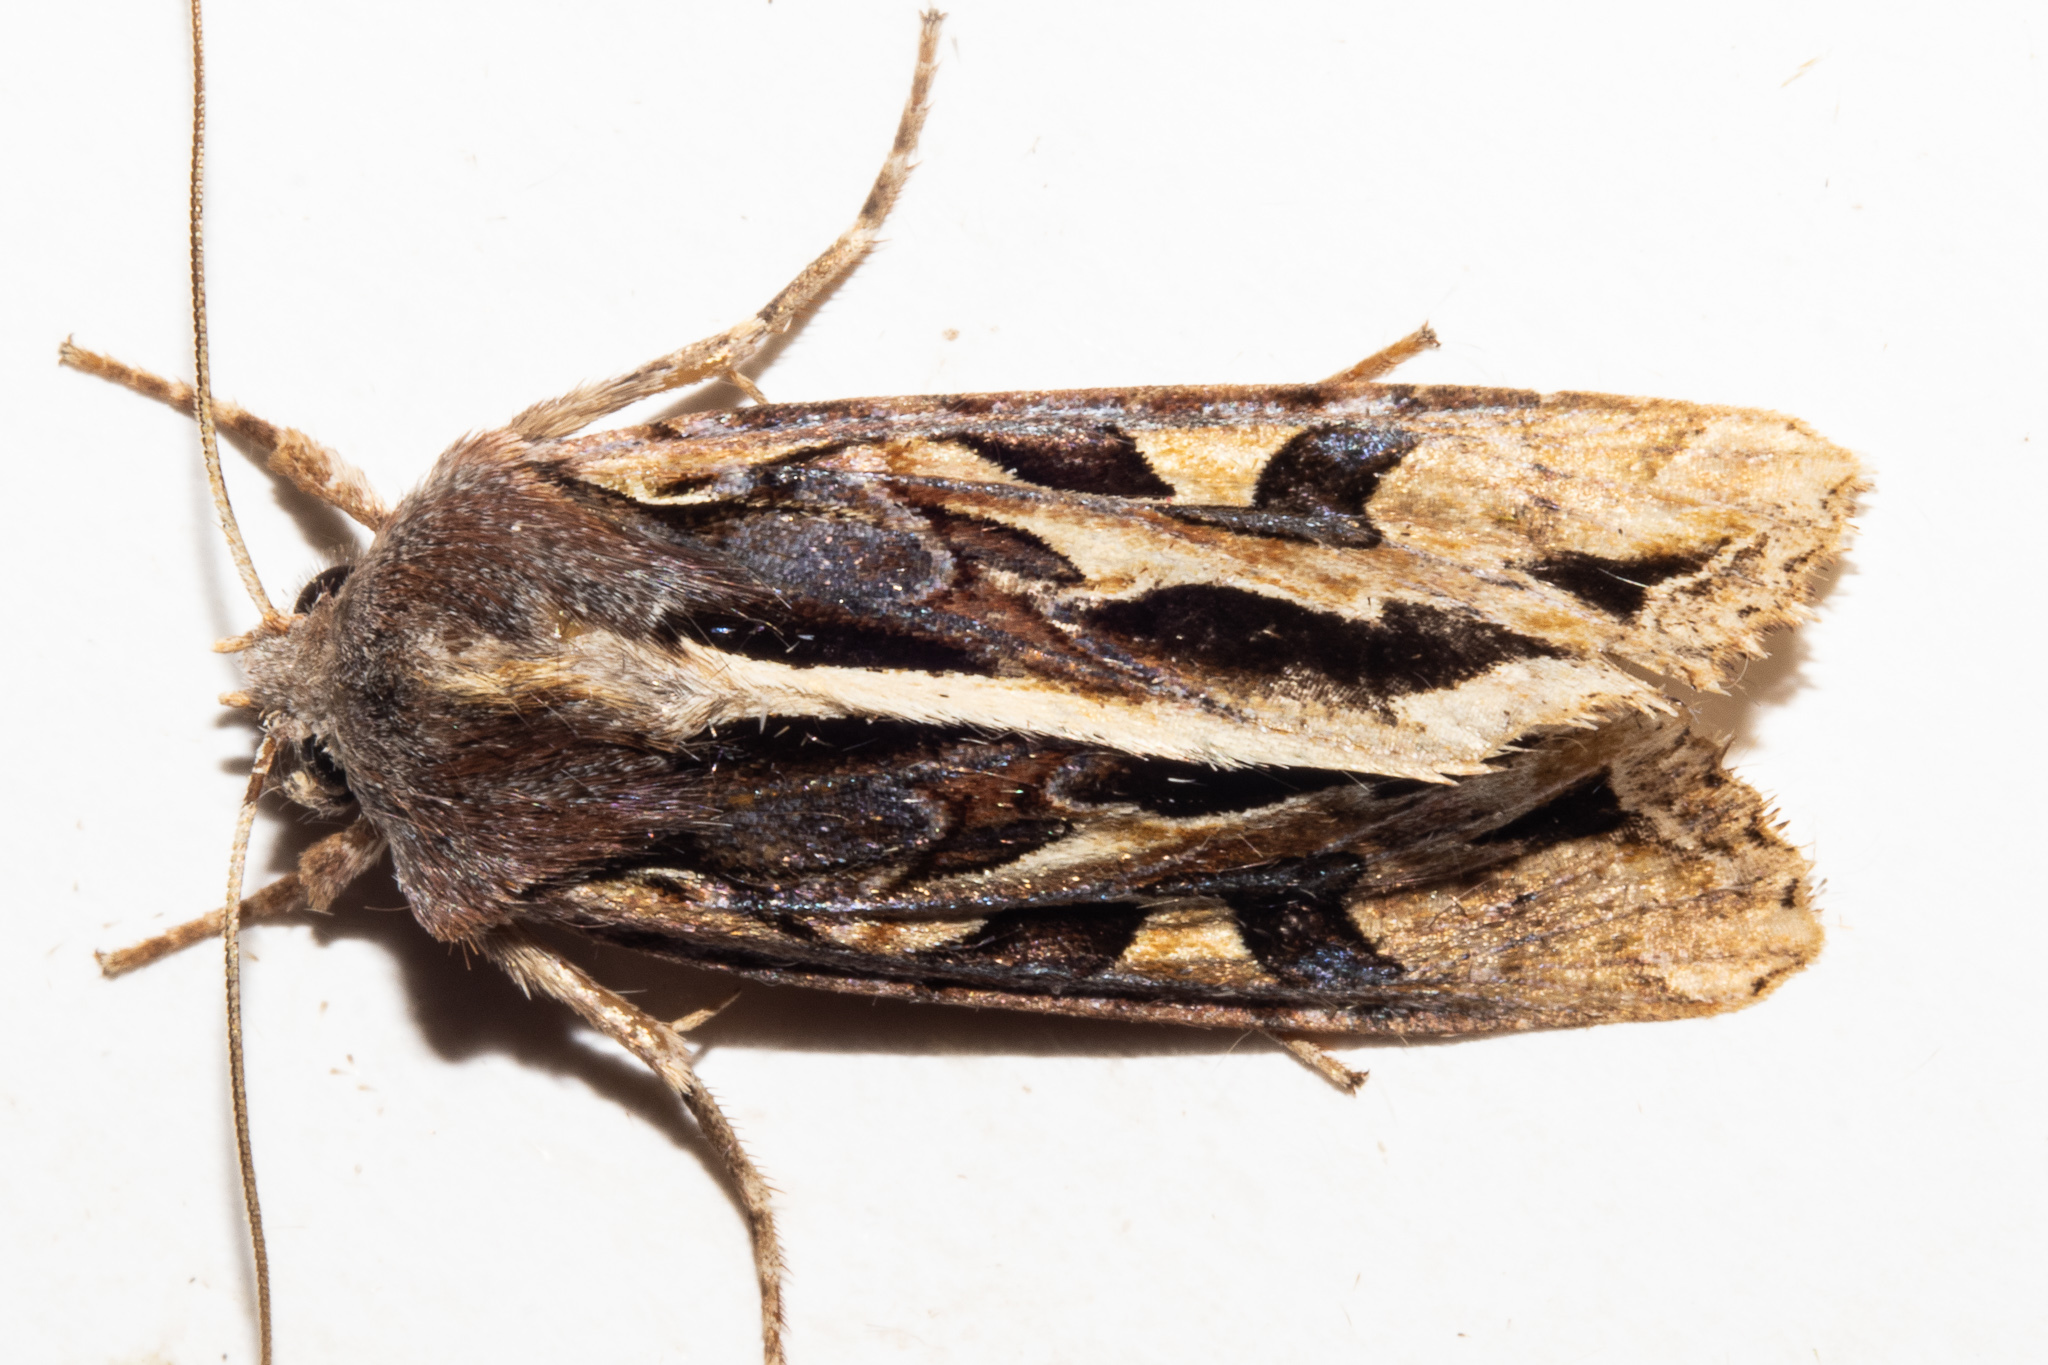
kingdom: Animalia
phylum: Arthropoda
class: Insecta
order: Lepidoptera
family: Noctuidae
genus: Ichneutica
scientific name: Ichneutica
